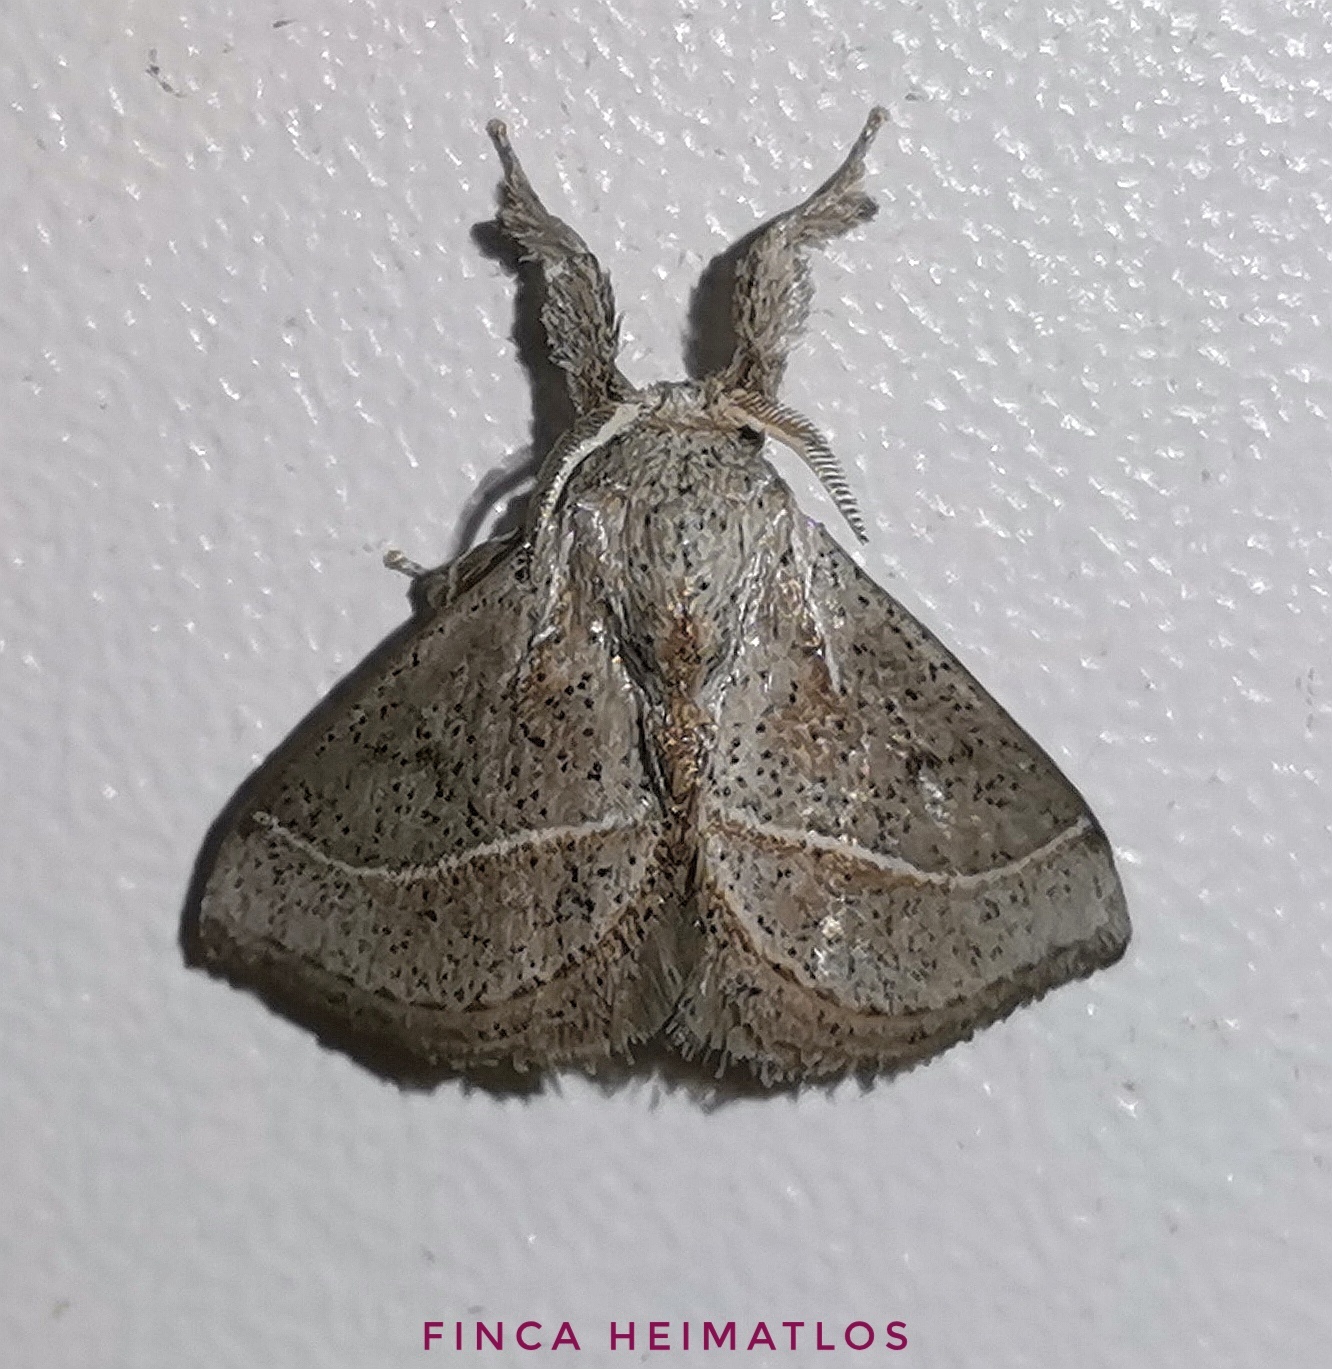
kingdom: Animalia
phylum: Arthropoda
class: Insecta
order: Lepidoptera
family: Limacodidae
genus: Epiperola
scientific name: Epiperola peluda
